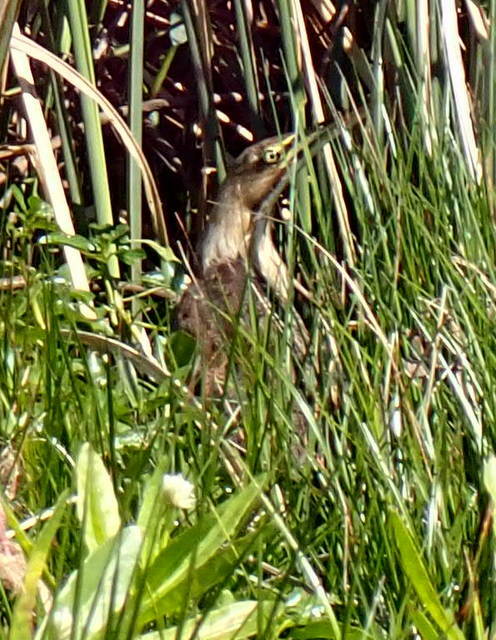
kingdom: Animalia
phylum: Chordata
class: Aves
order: Pelecaniformes
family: Ardeidae
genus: Botaurus
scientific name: Botaurus lentiginosus
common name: American bittern
